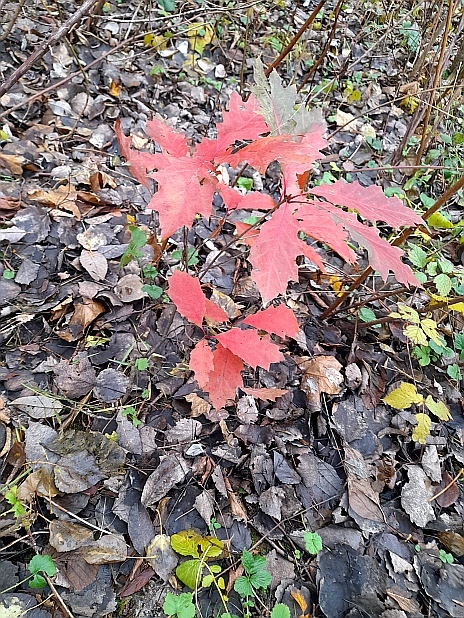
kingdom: Plantae
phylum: Tracheophyta
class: Magnoliopsida
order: Fagales
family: Fagaceae
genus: Quercus
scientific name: Quercus rubra
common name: Red oak
